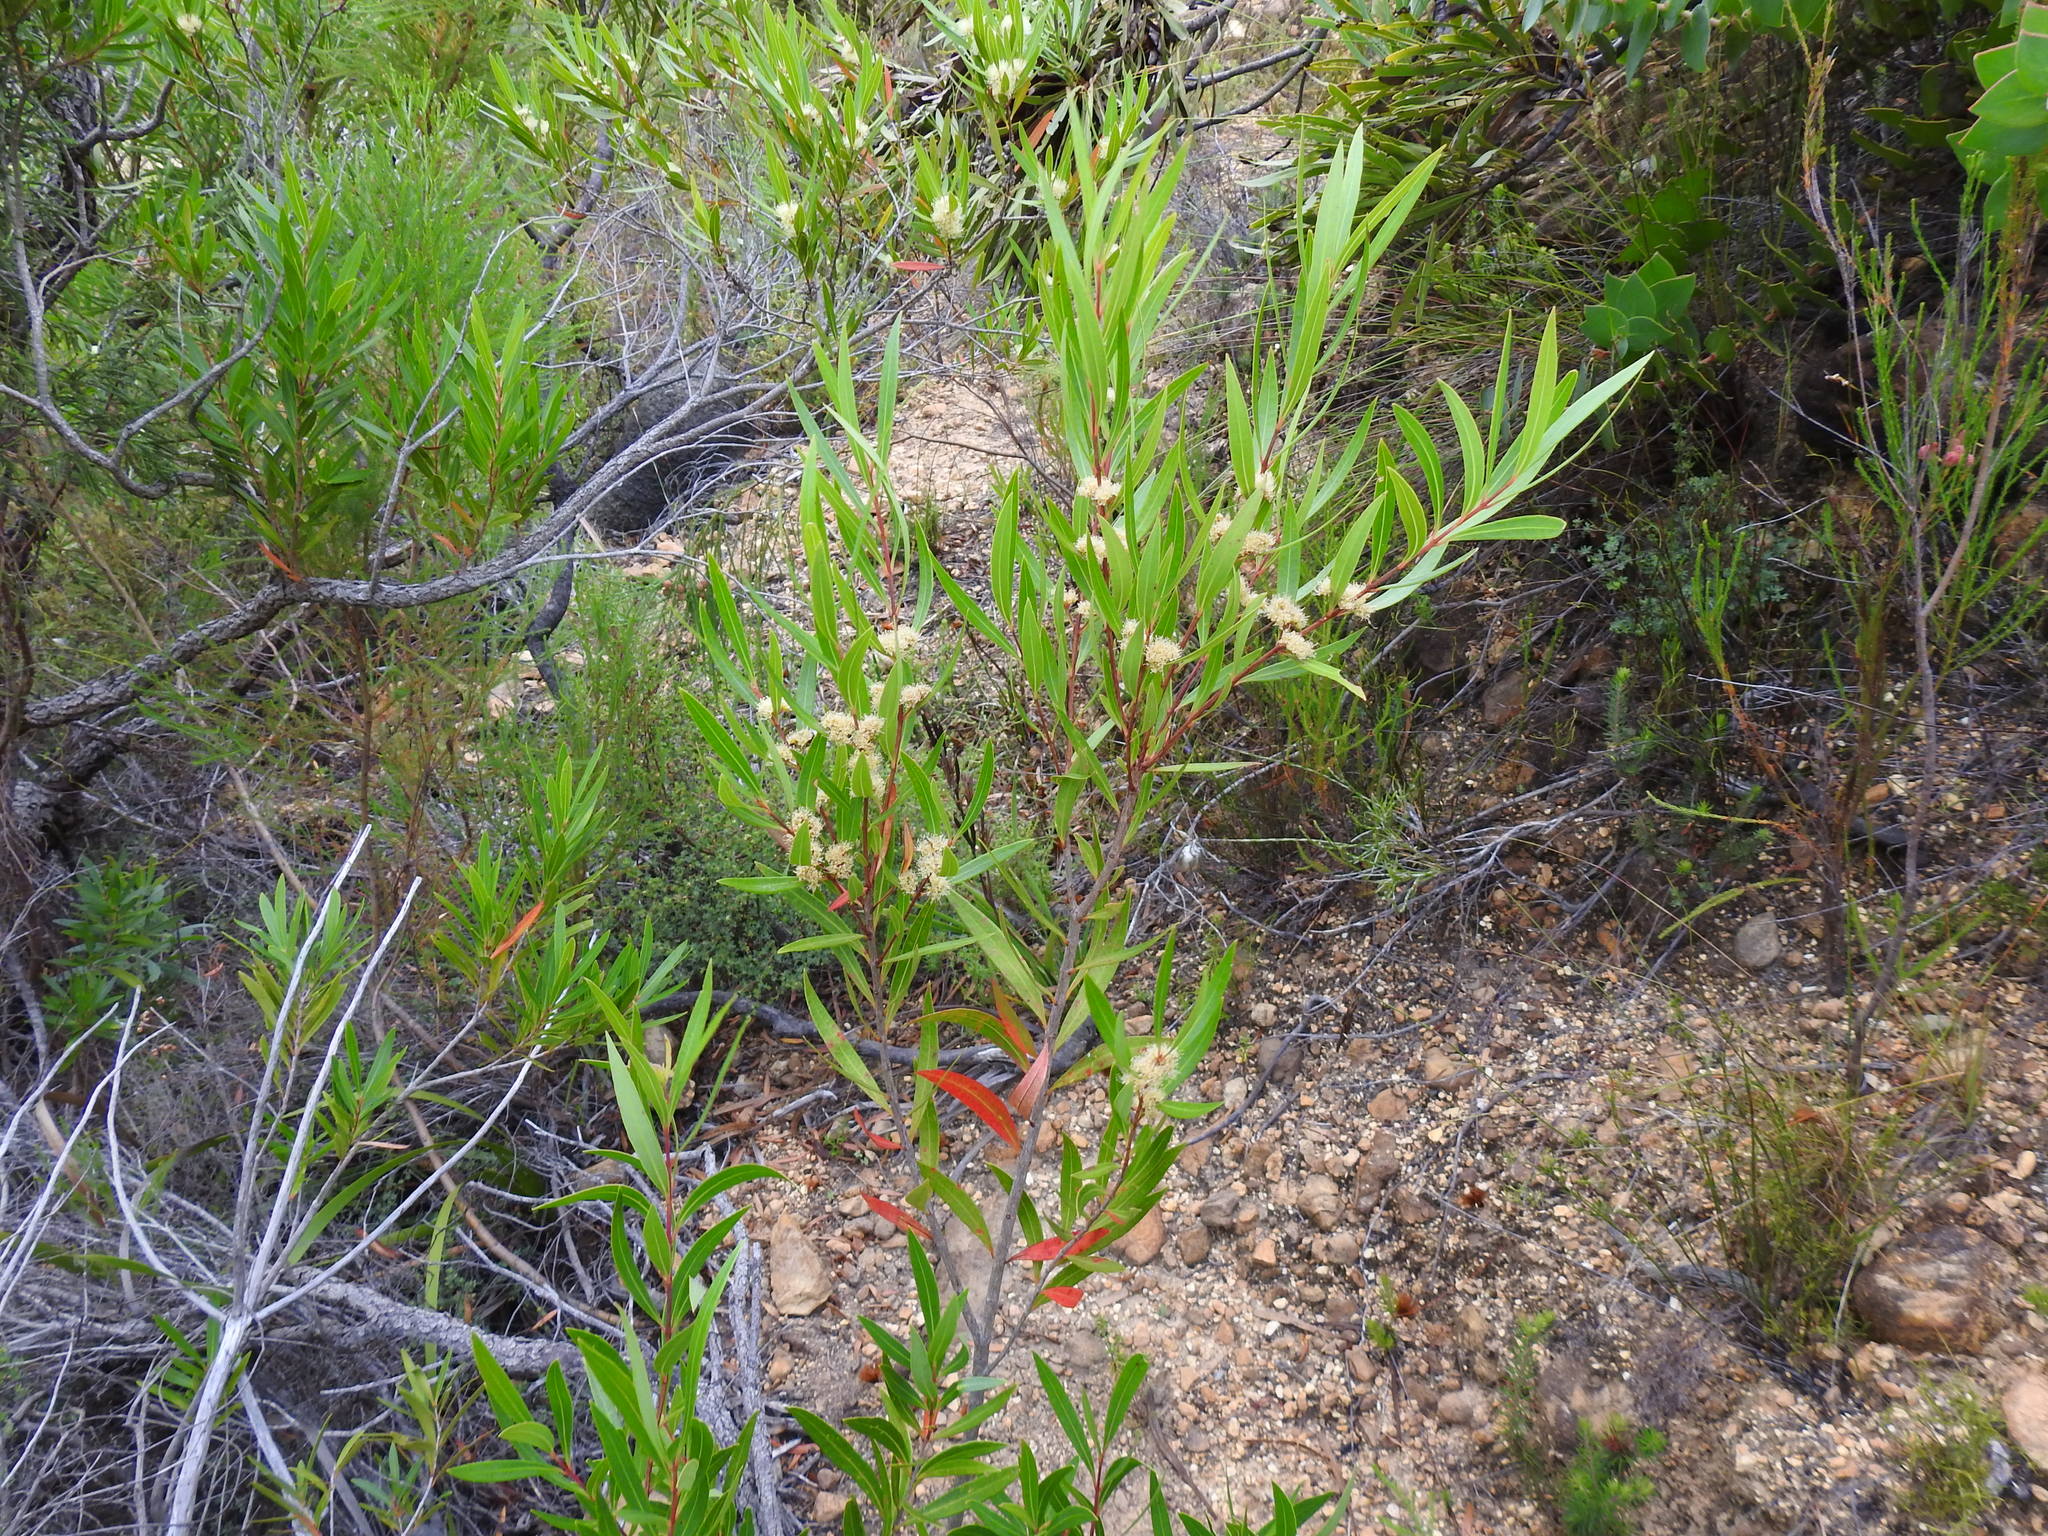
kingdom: Plantae
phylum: Tracheophyta
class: Magnoliopsida
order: Myrtales
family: Myrtaceae
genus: Callistemon
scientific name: Callistemon lanceolatus
